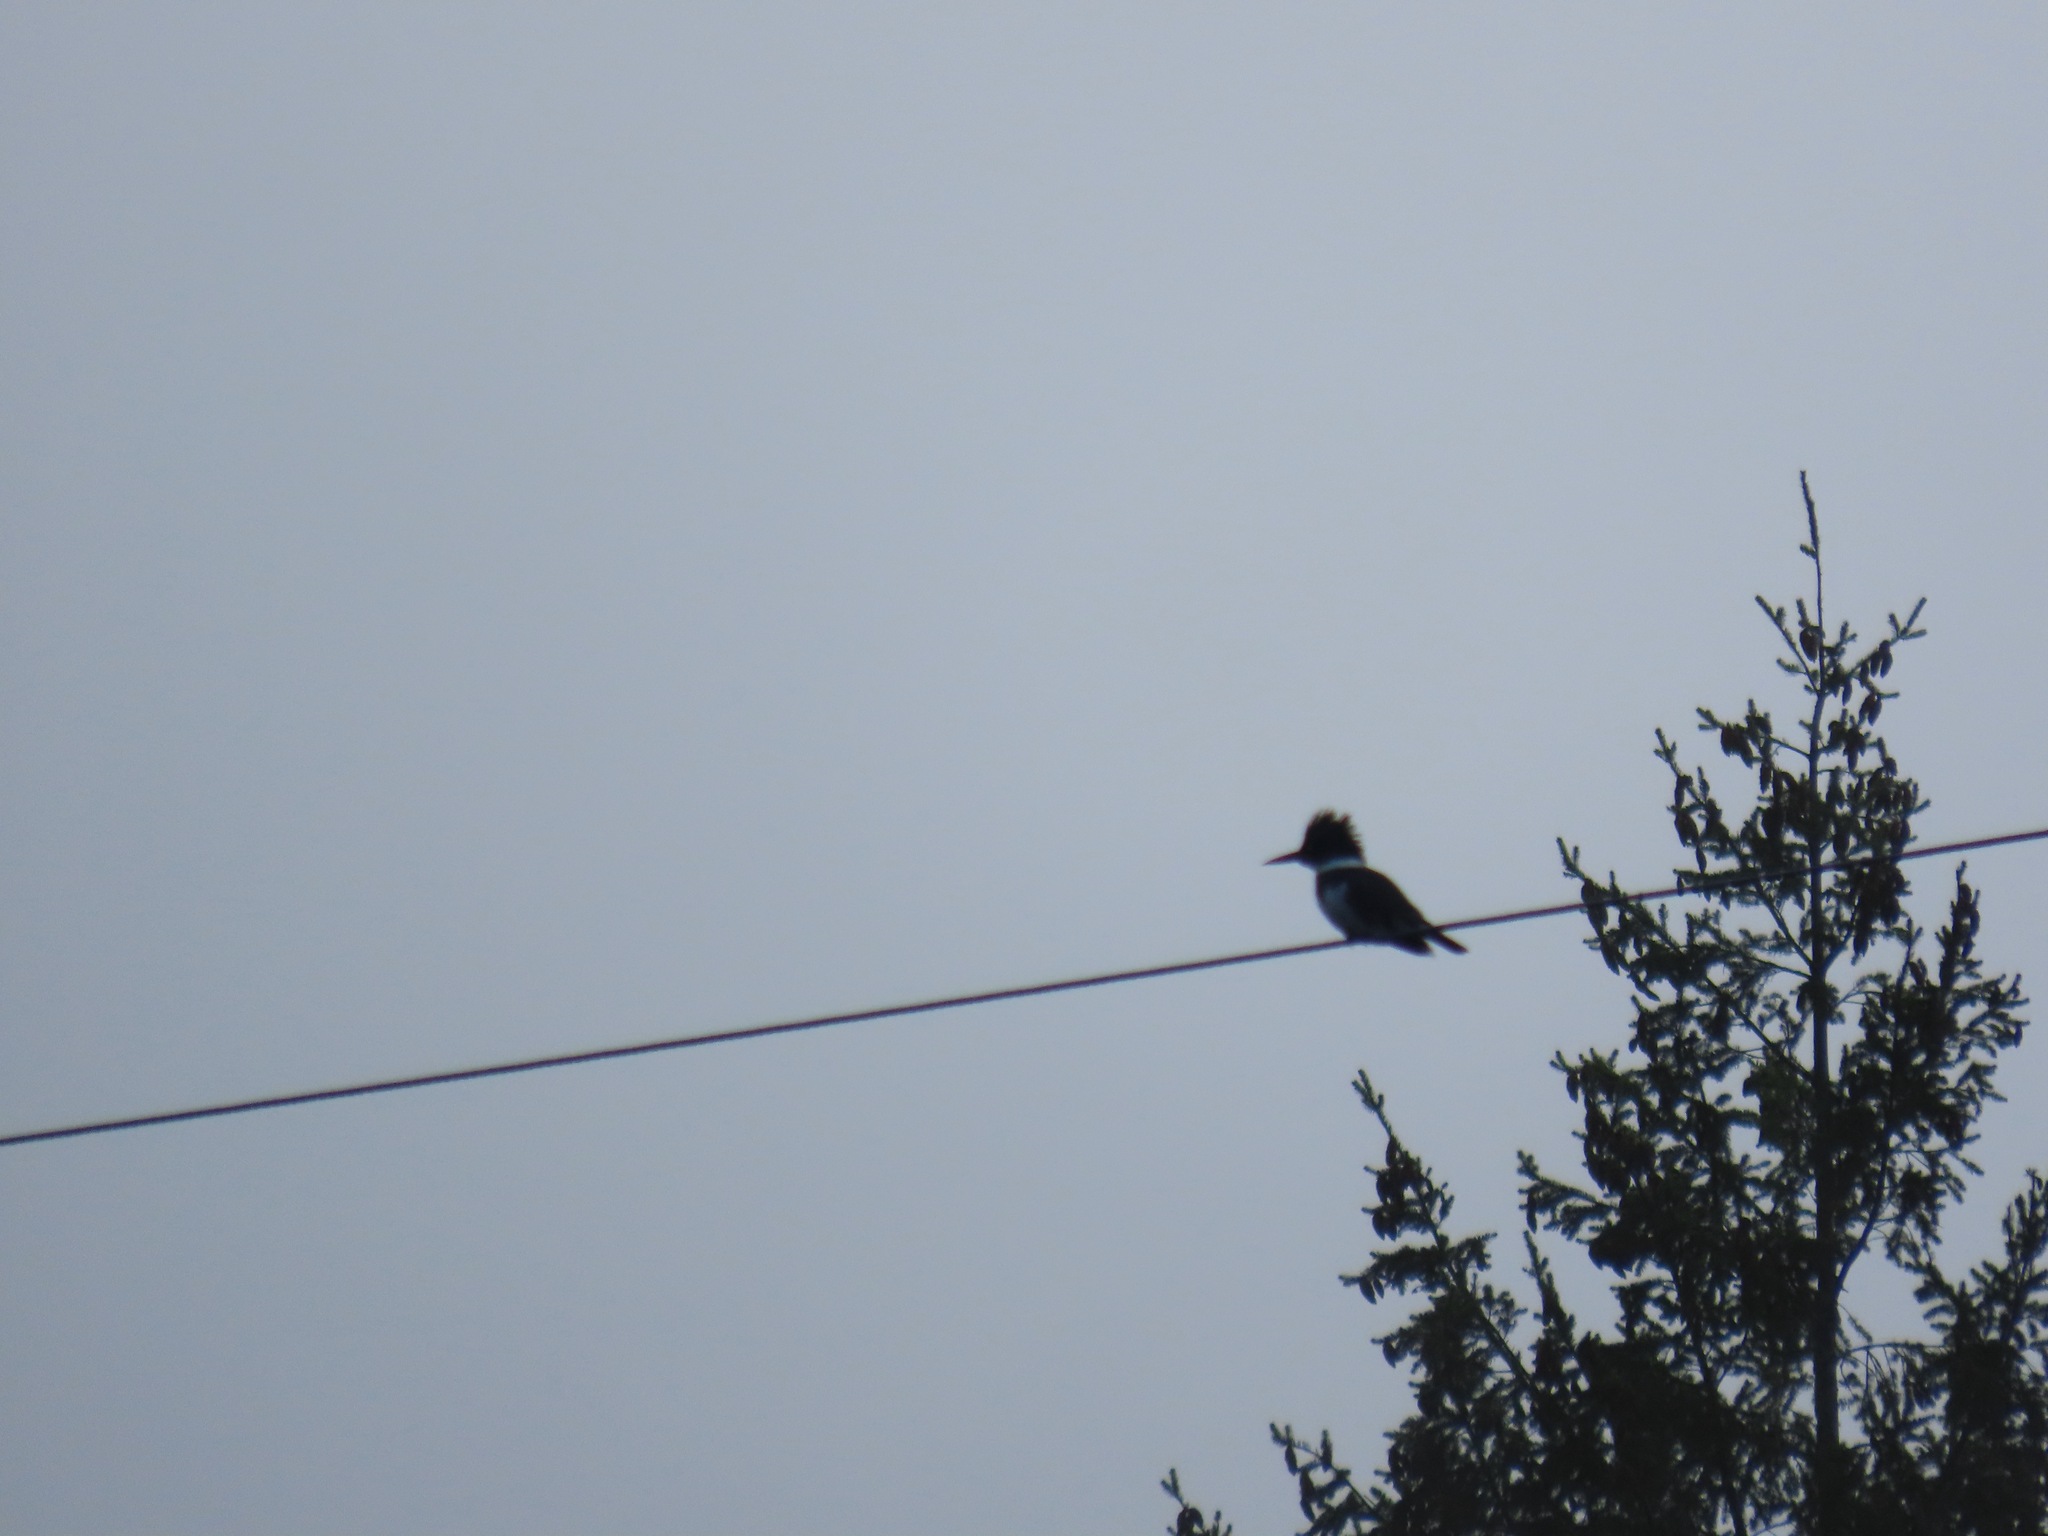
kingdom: Animalia
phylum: Chordata
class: Aves
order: Coraciiformes
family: Alcedinidae
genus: Megaceryle
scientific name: Megaceryle alcyon
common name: Belted kingfisher
